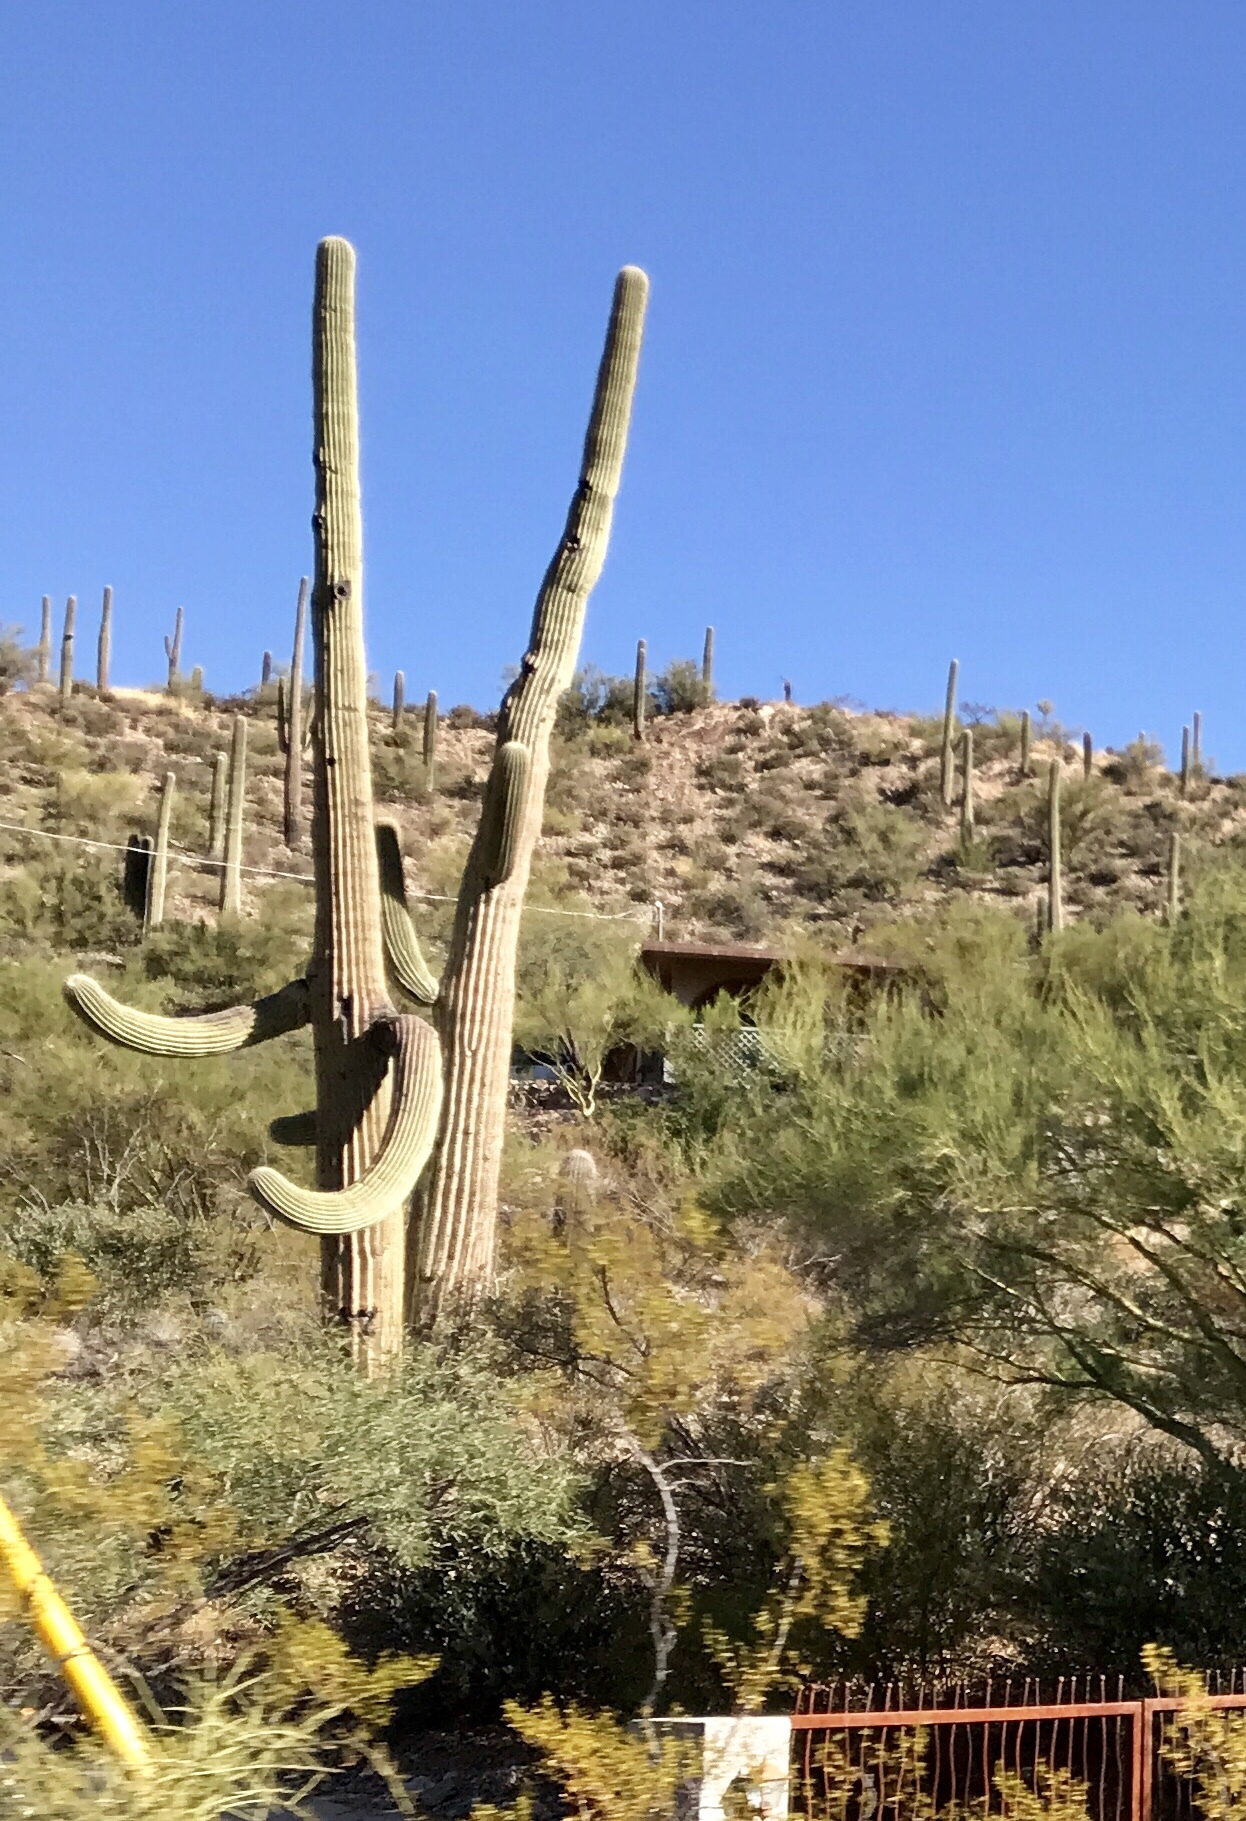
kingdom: Plantae
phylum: Tracheophyta
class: Magnoliopsida
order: Caryophyllales
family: Cactaceae
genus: Carnegiea
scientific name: Carnegiea gigantea
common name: Saguaro
